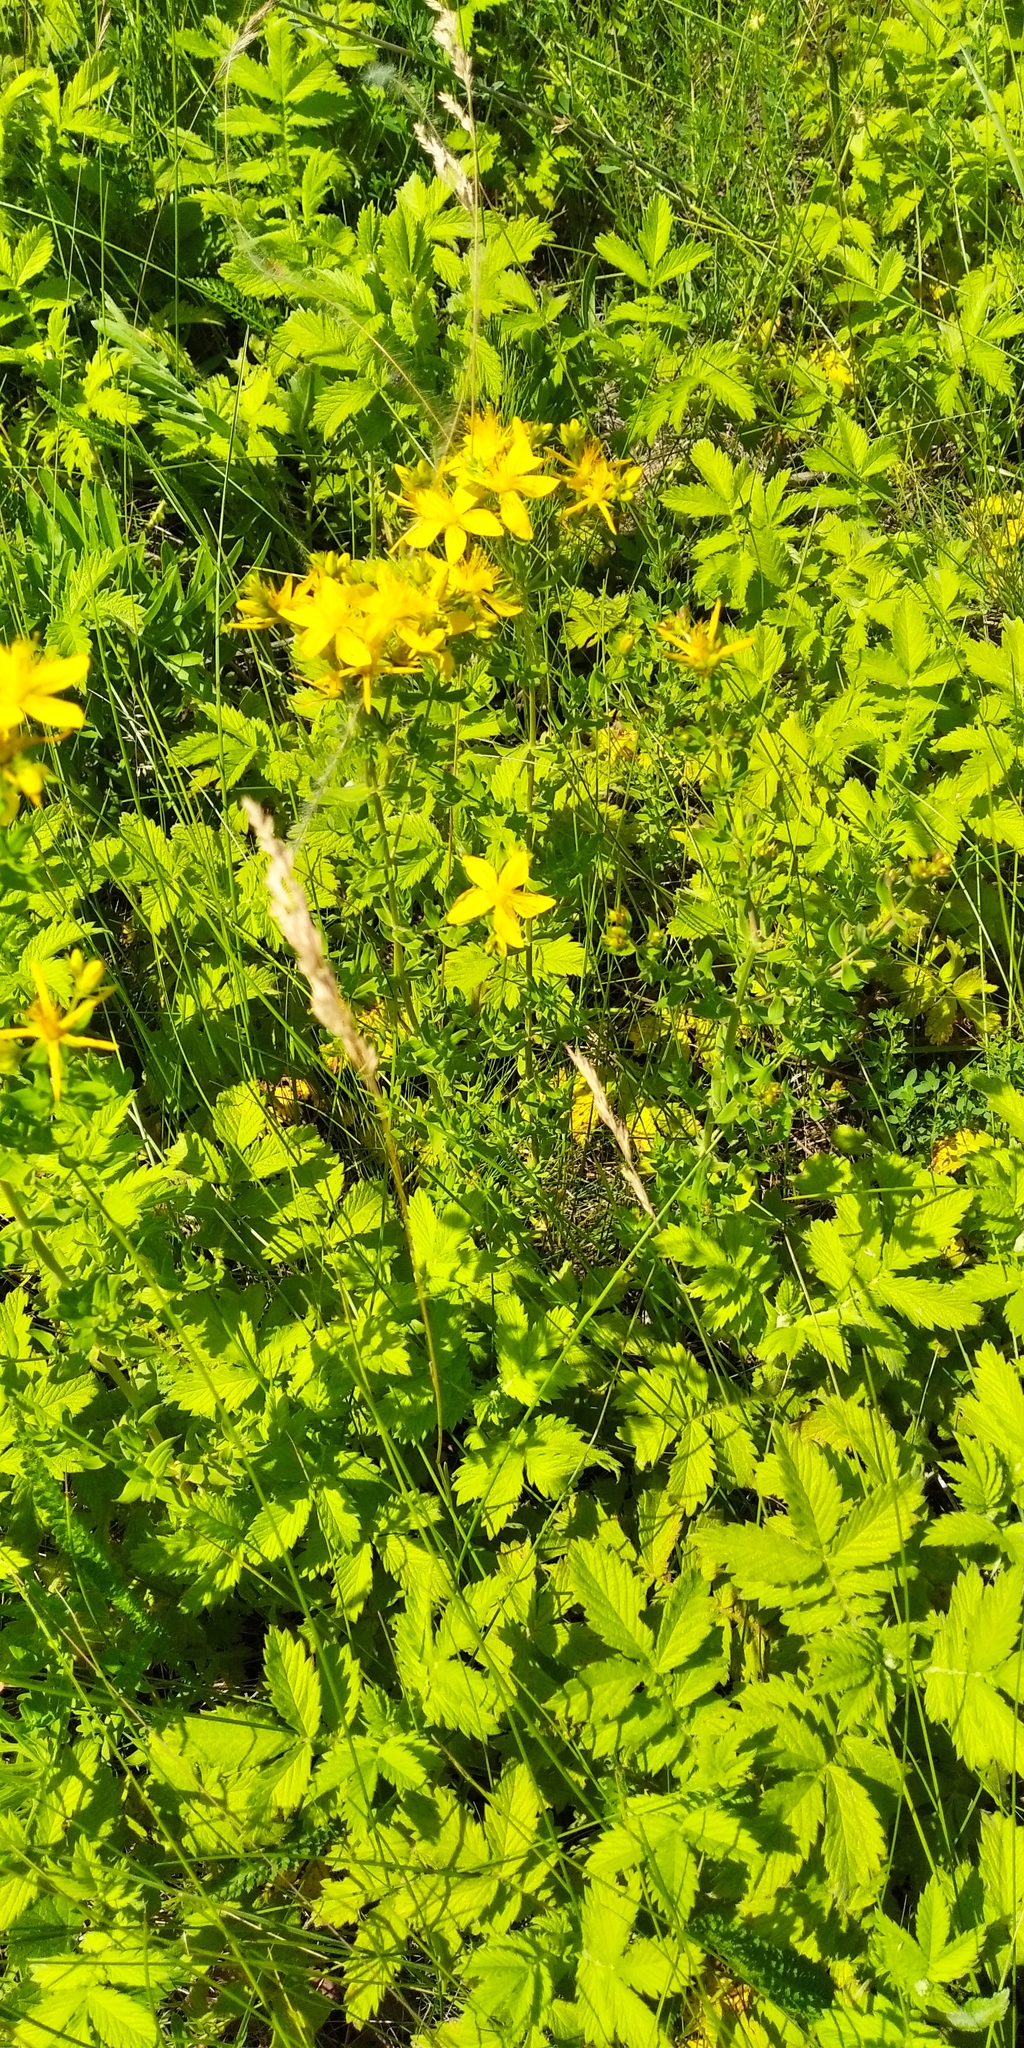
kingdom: Plantae
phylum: Tracheophyta
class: Magnoliopsida
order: Malpighiales
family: Hypericaceae
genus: Hypericum
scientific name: Hypericum perforatum
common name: Common st. johnswort
